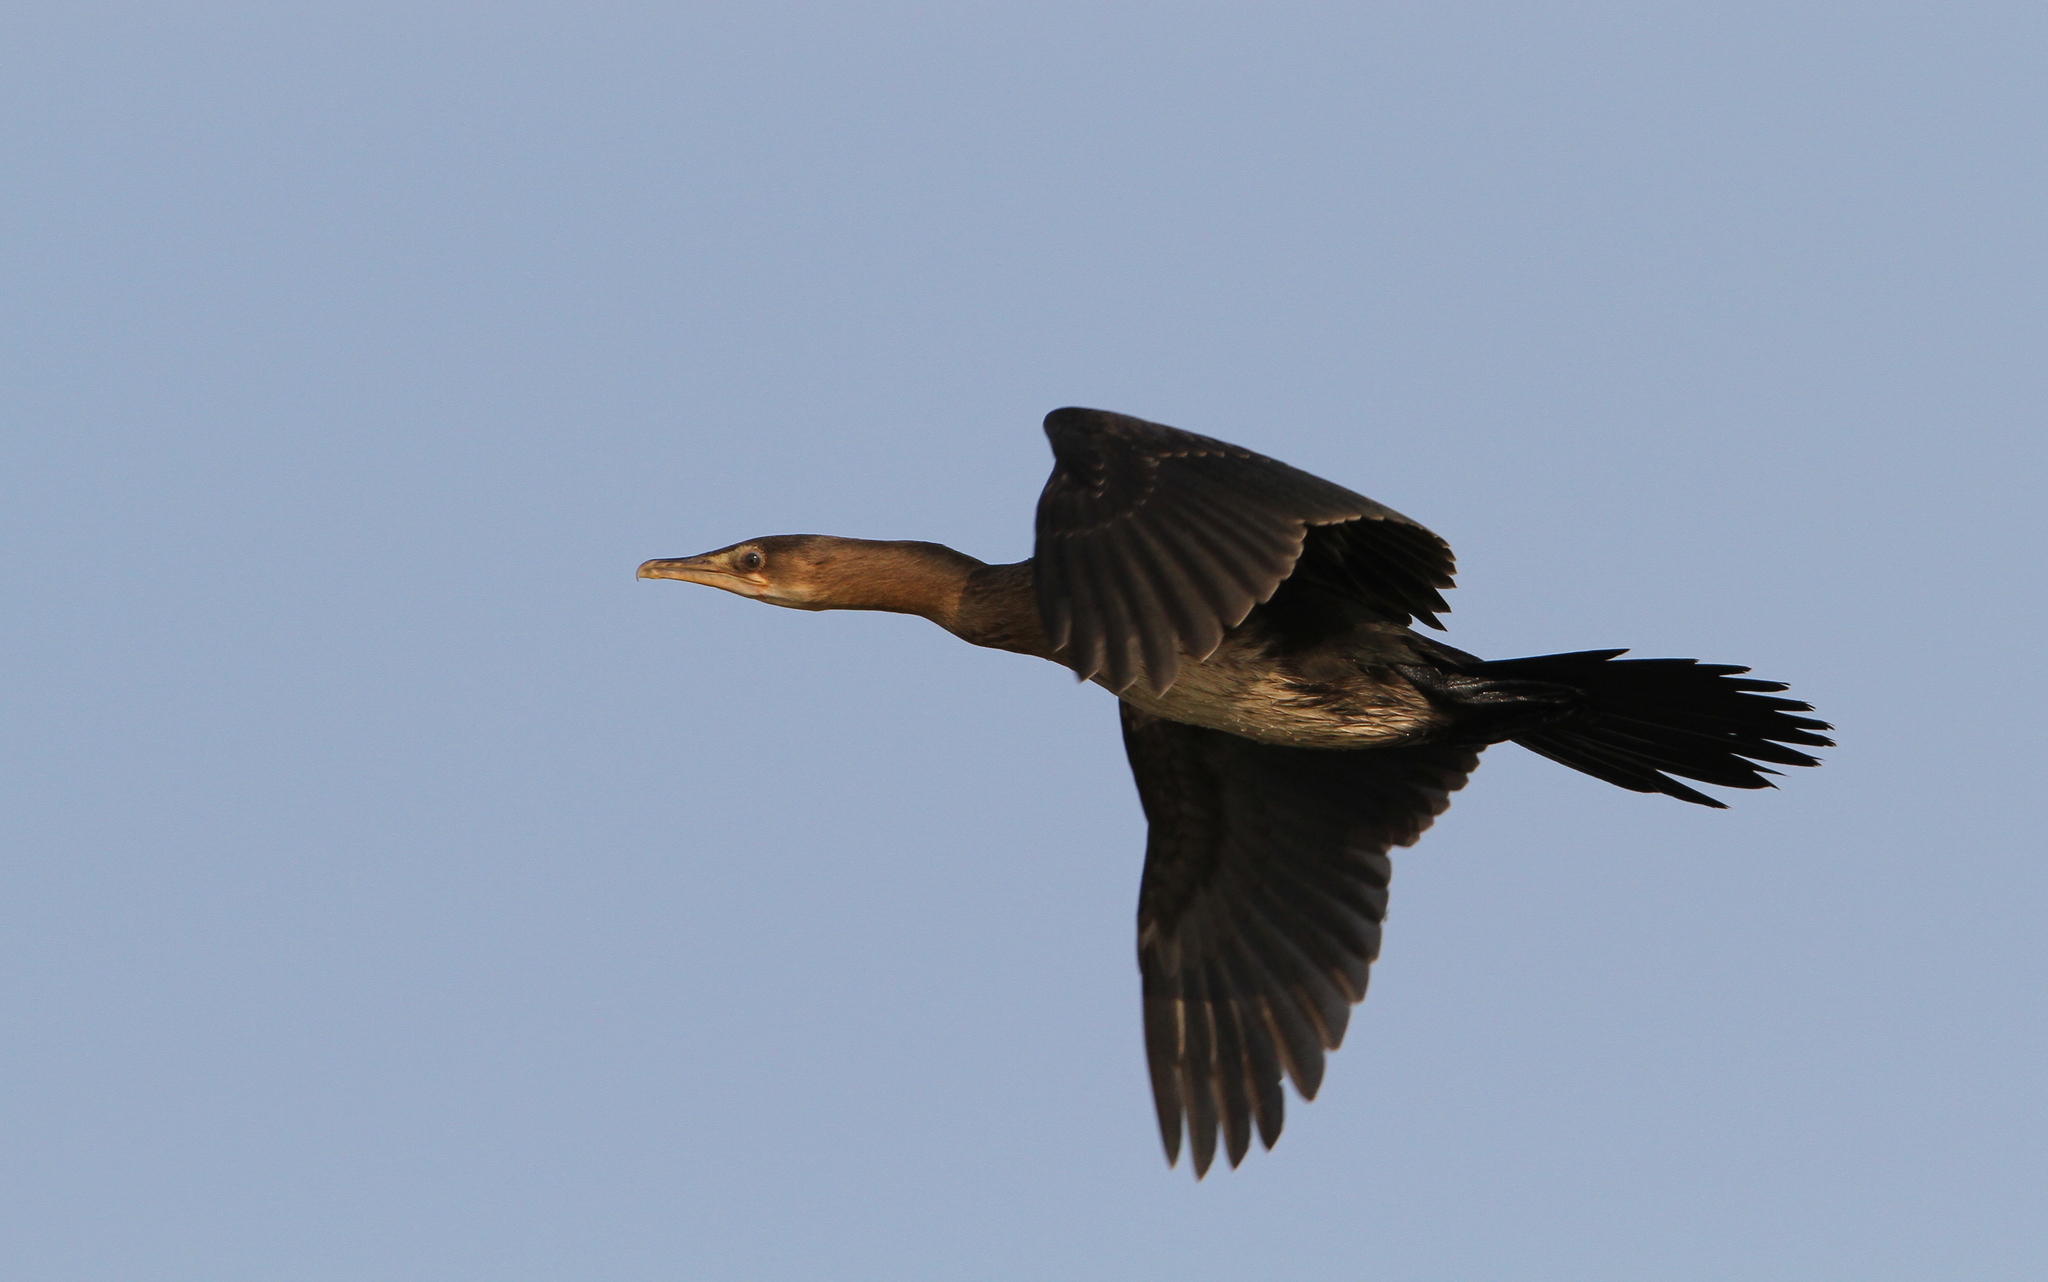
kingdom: Animalia
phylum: Chordata
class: Aves
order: Suliformes
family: Phalacrocoracidae
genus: Microcarbo
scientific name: Microcarbo africanus
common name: Long-tailed cormorant
